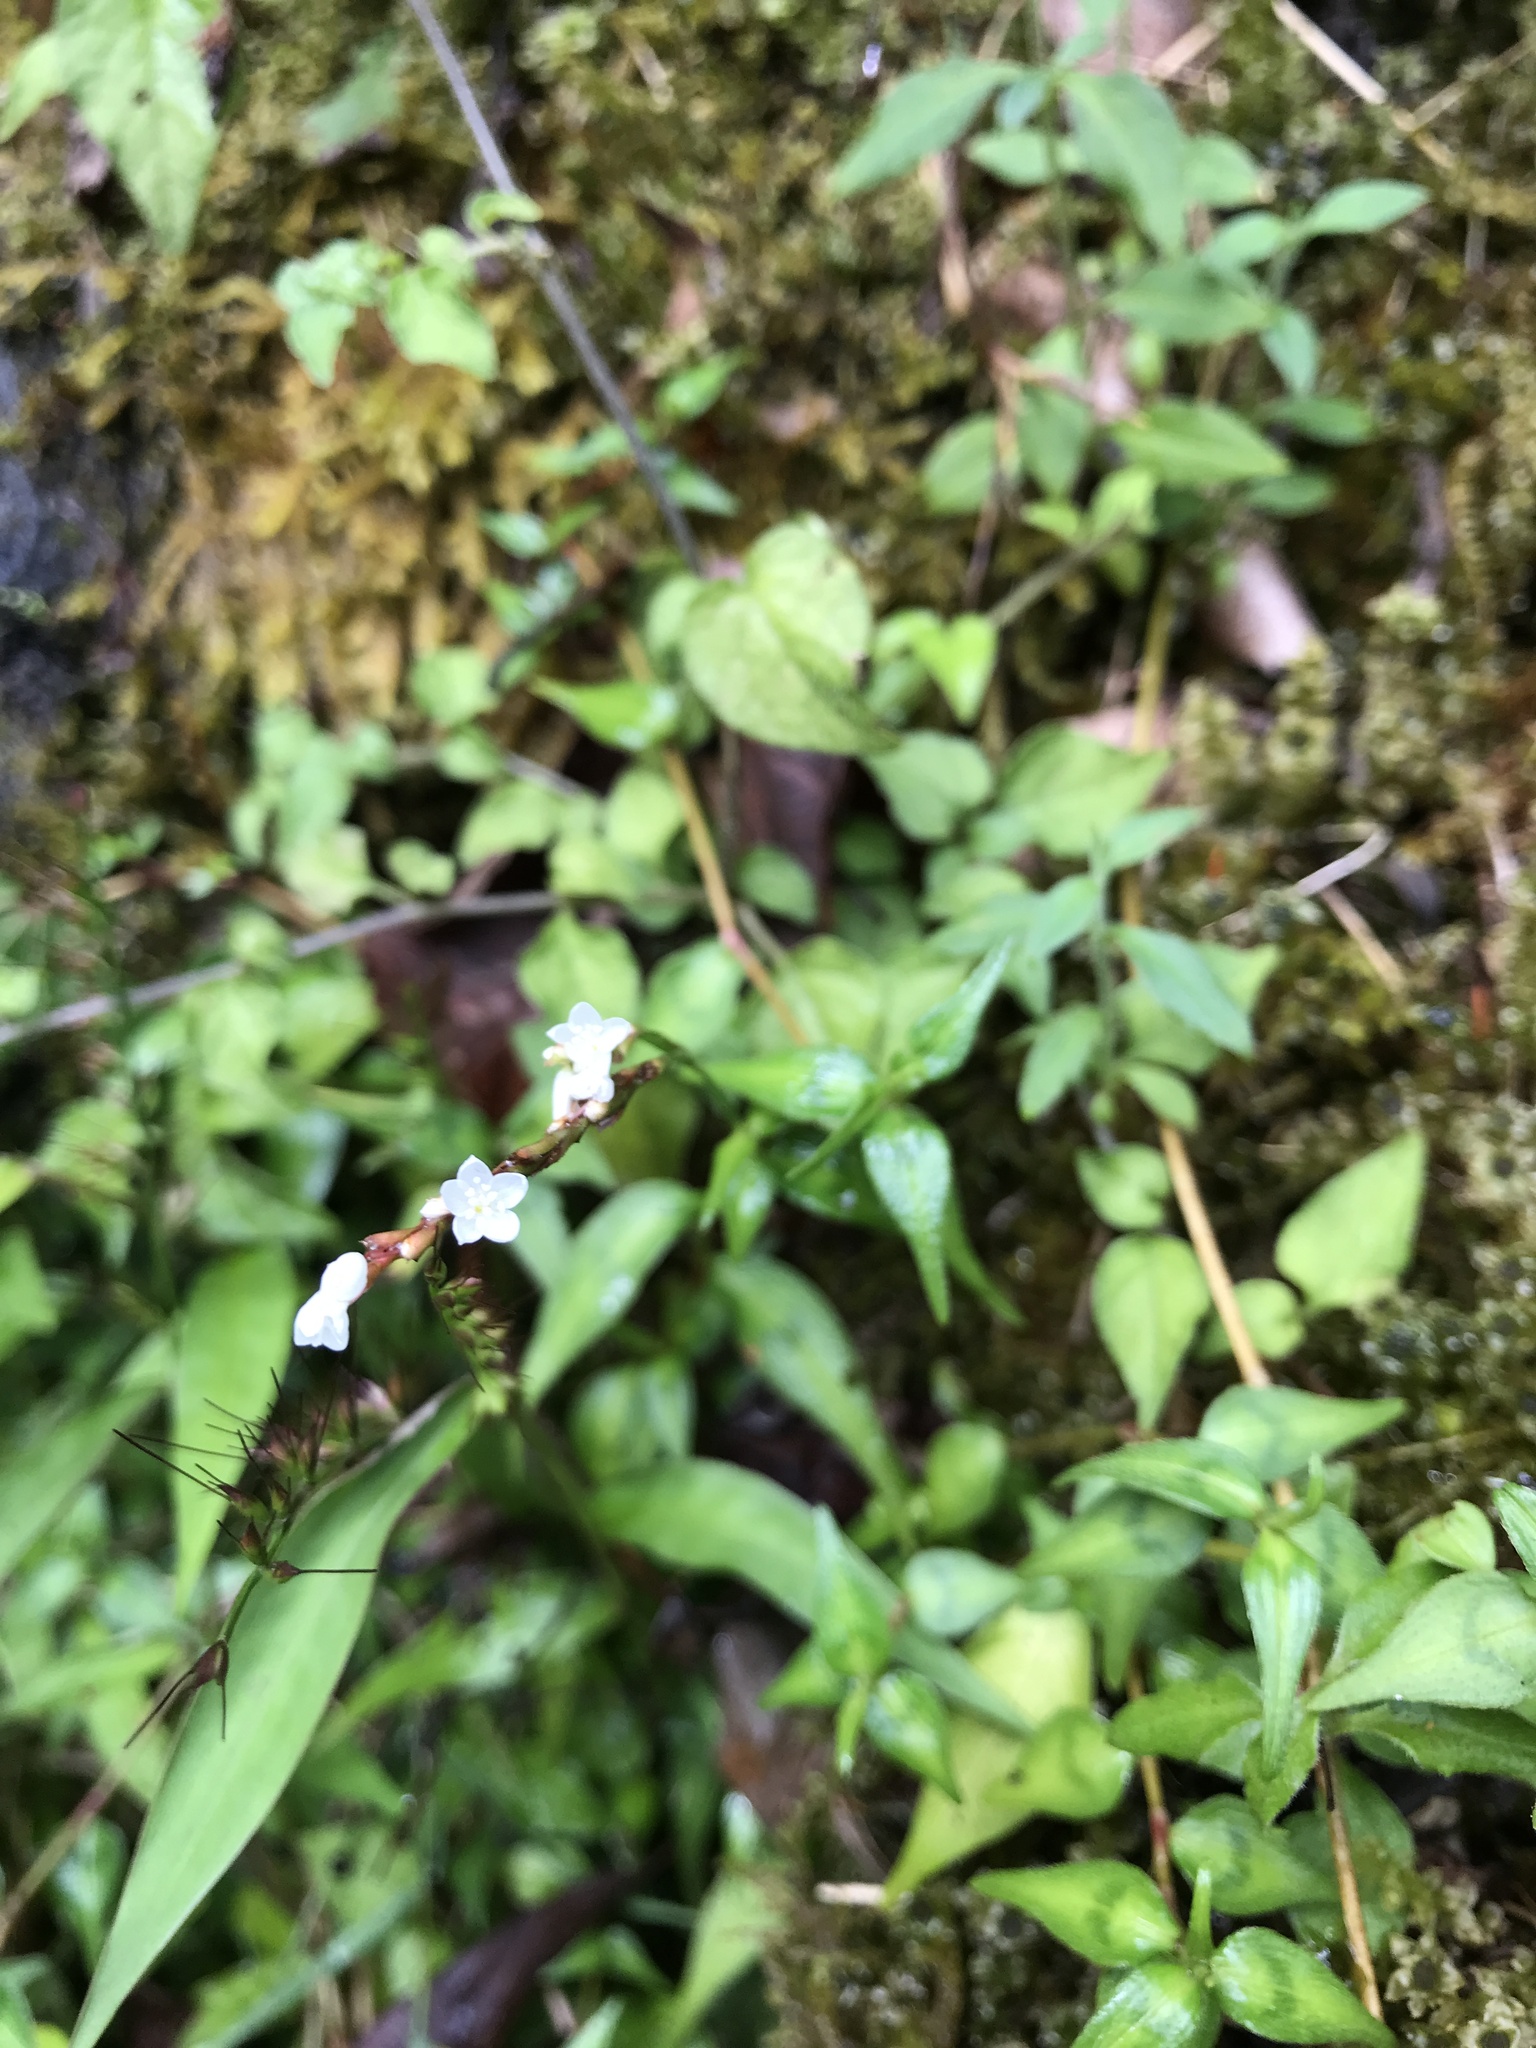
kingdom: Plantae
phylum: Tracheophyta
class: Magnoliopsida
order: Caryophyllales
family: Polygonaceae
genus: Persicaria
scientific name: Persicaria jucunda
